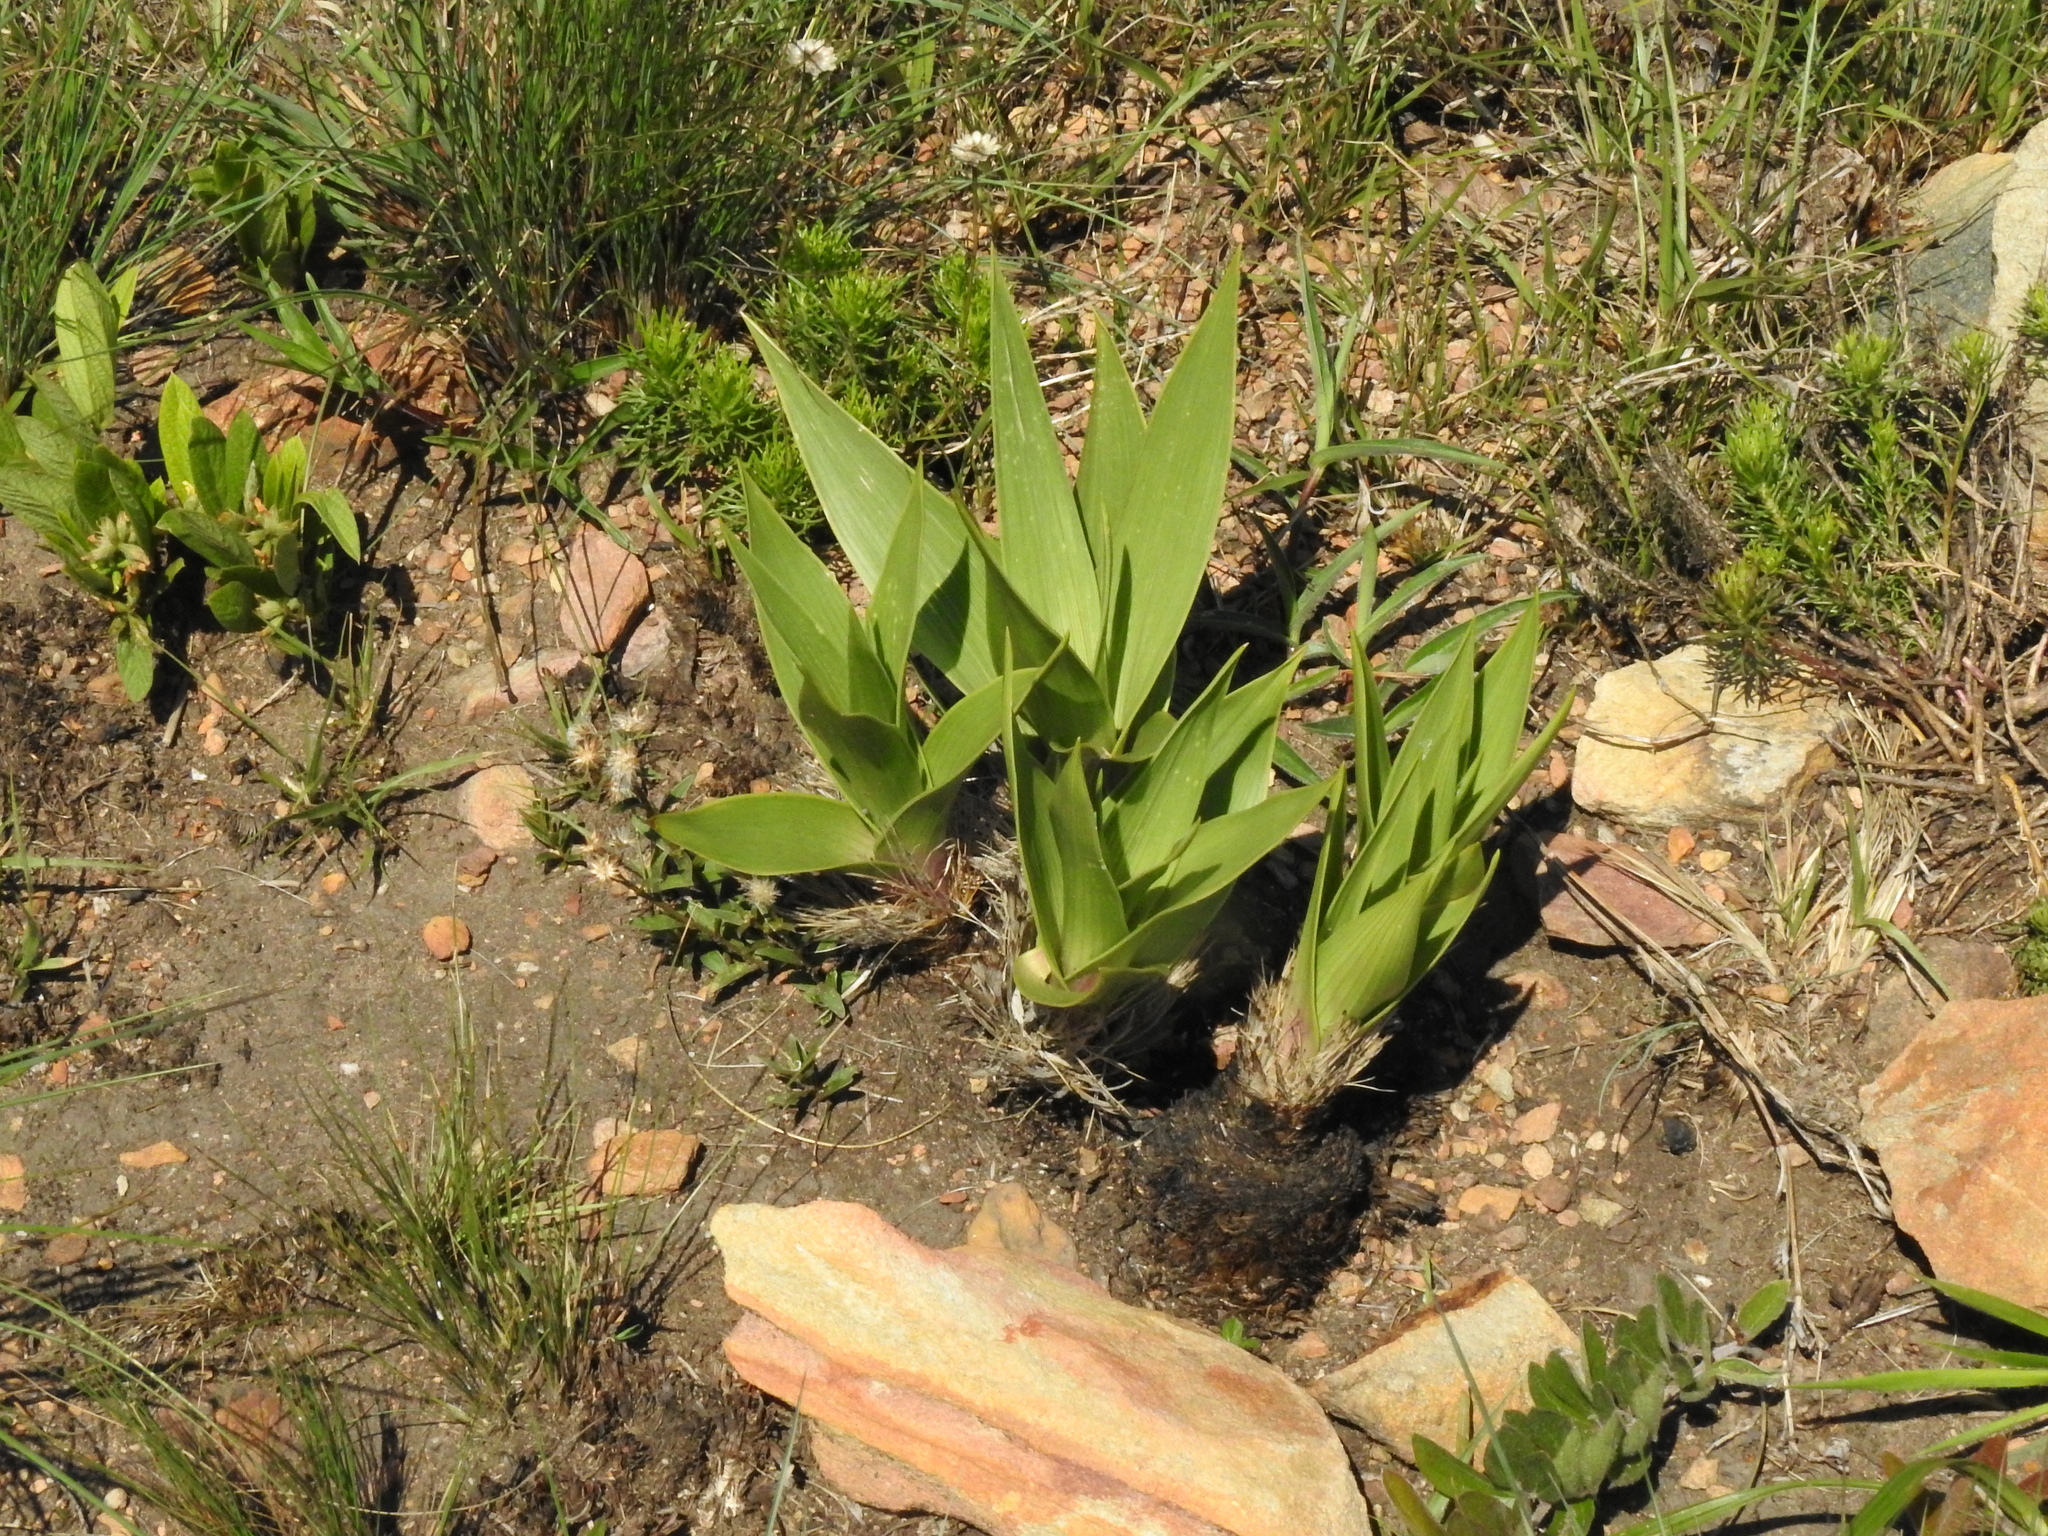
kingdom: Plantae
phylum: Tracheophyta
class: Liliopsida
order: Asparagales
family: Asparagaceae
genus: Schizocarphus
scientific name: Schizocarphus nervosus
